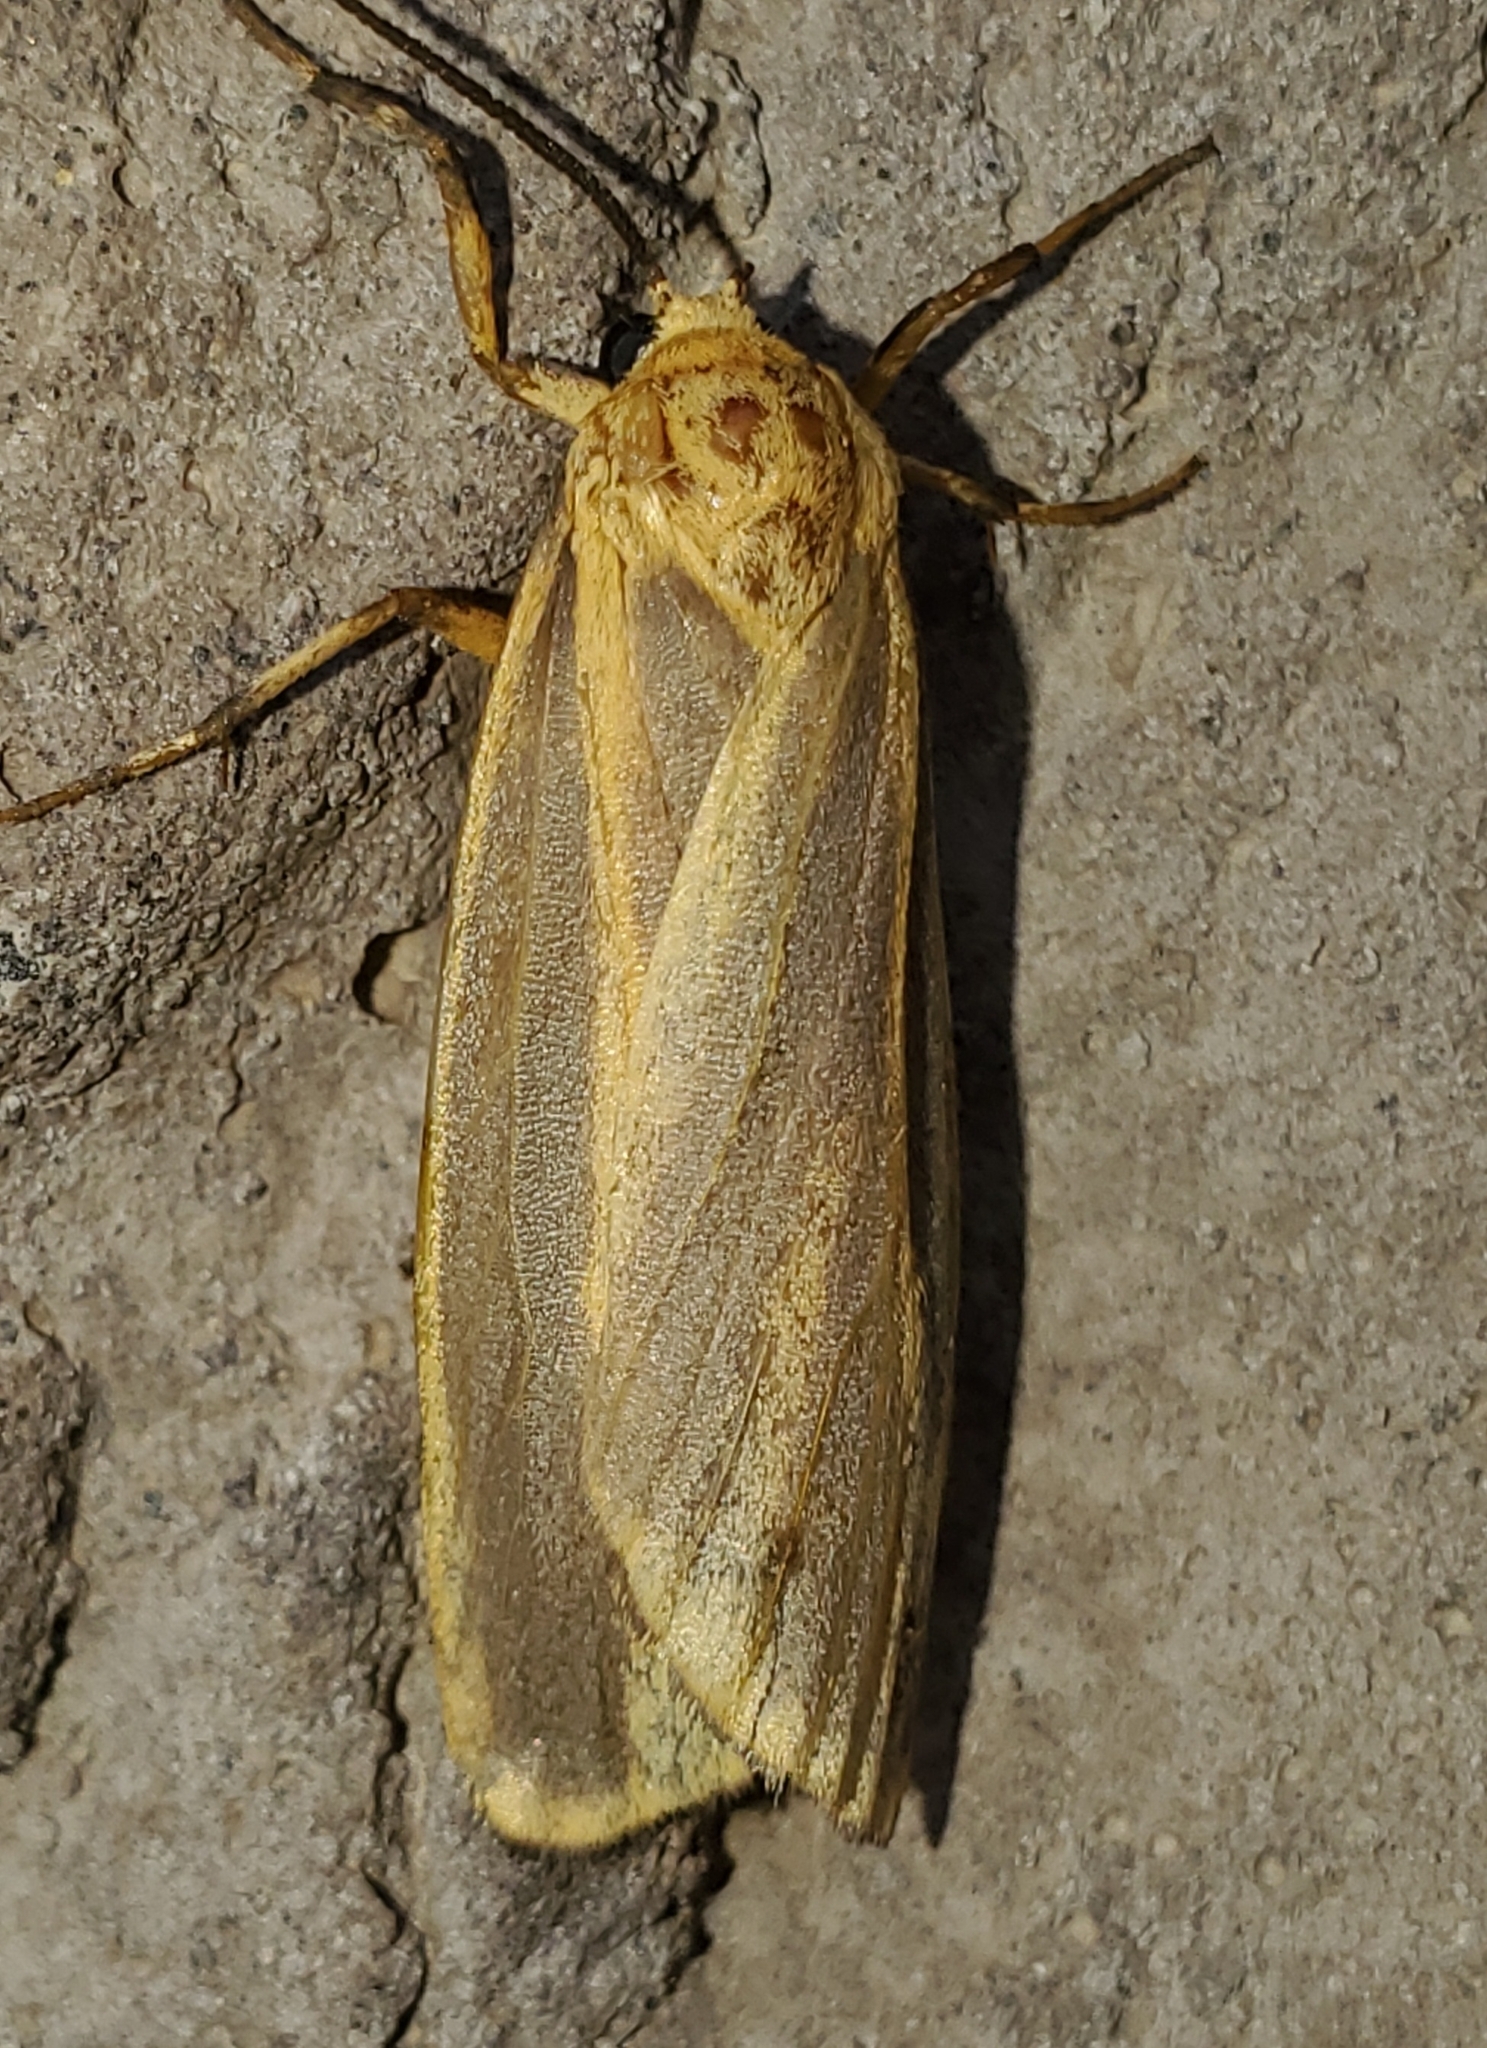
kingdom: Animalia
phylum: Arthropoda
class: Insecta
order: Lepidoptera
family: Erebidae
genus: Hypoprepia
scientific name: Hypoprepia cadaverosa
